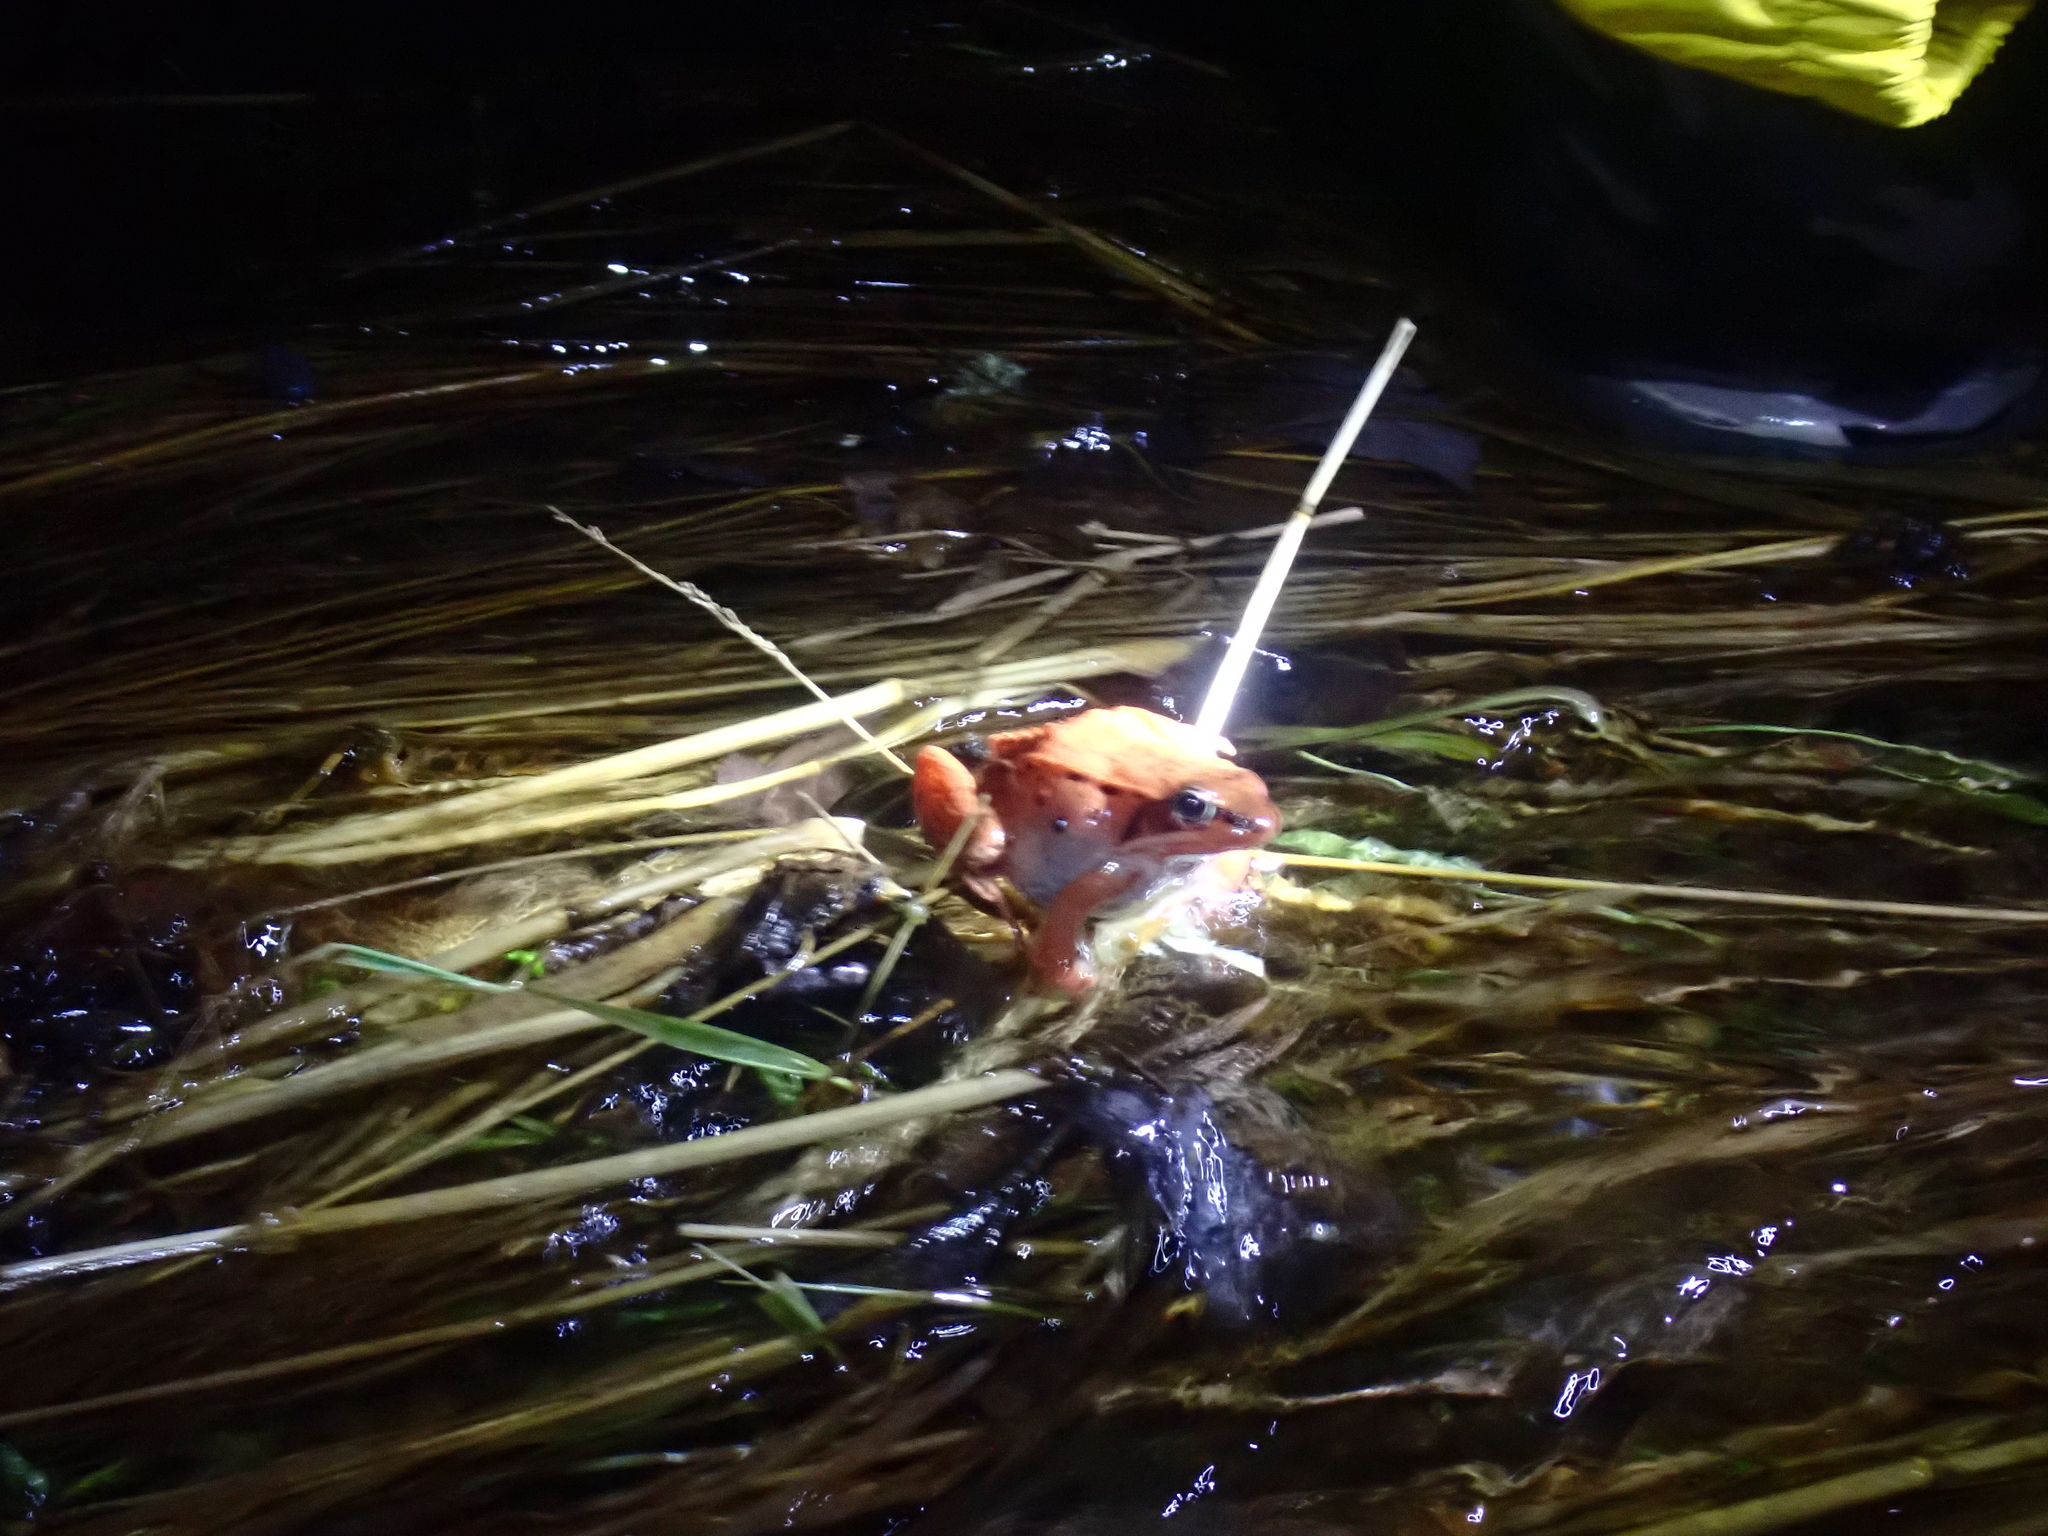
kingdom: Animalia
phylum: Chordata
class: Amphibia
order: Anura
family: Ranidae
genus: Lithobates
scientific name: Lithobates sylvaticus
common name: Wood frog
